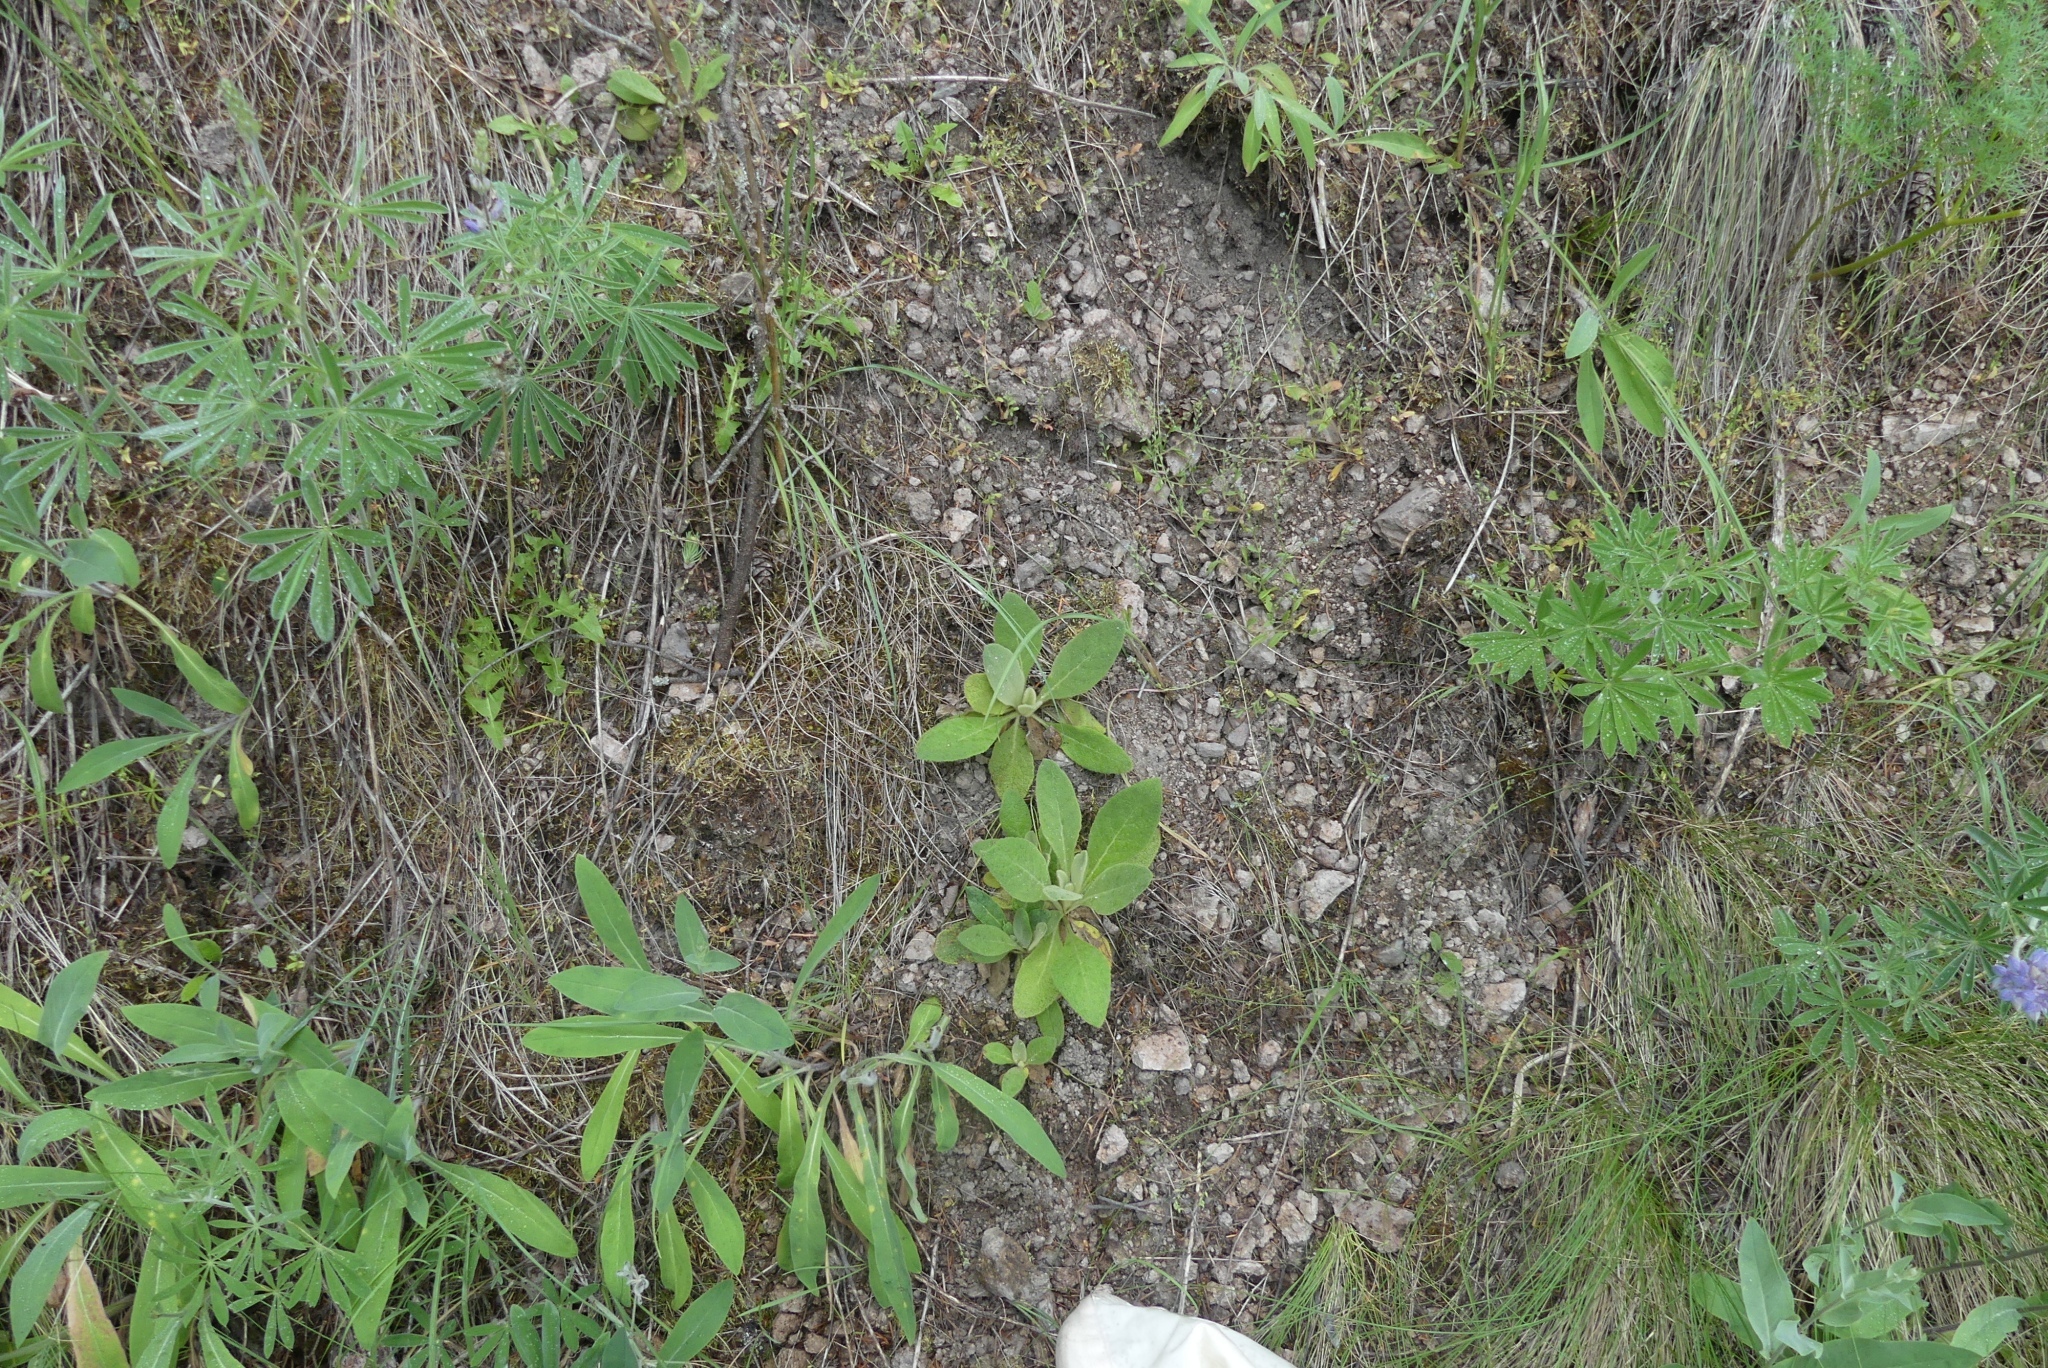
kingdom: Plantae
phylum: Tracheophyta
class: Magnoliopsida
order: Lamiales
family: Scrophulariaceae
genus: Verbascum
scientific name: Verbascum thapsus
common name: Common mullein
